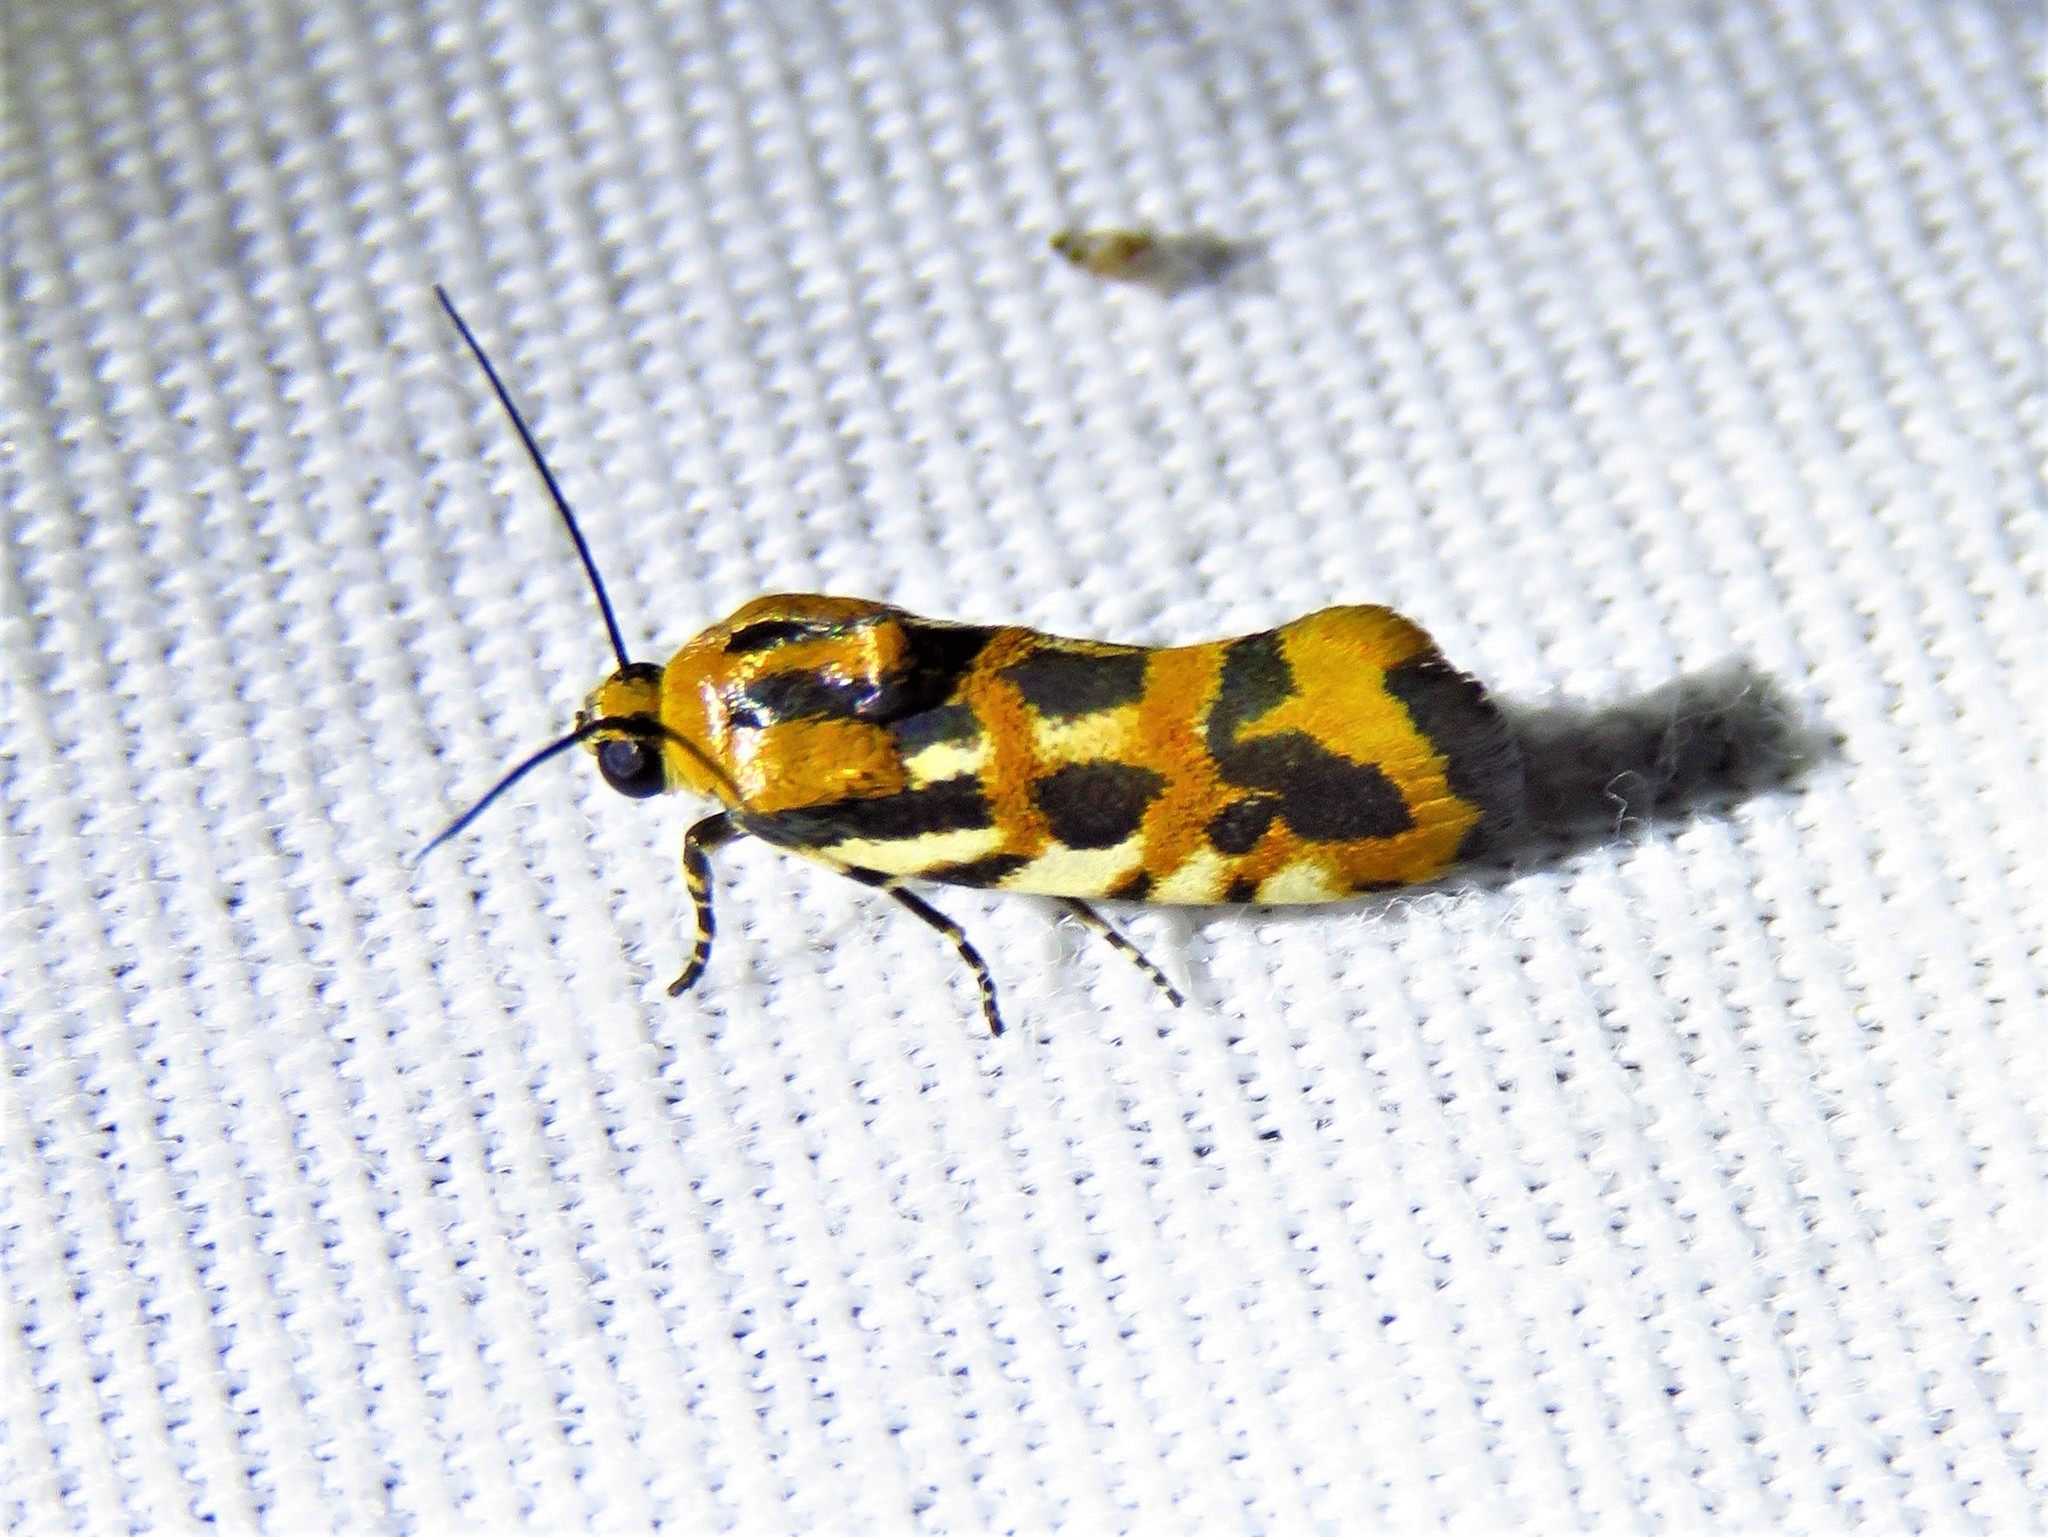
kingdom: Animalia
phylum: Arthropoda
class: Insecta
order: Lepidoptera
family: Noctuidae
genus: Acontia
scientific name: Acontia leo
